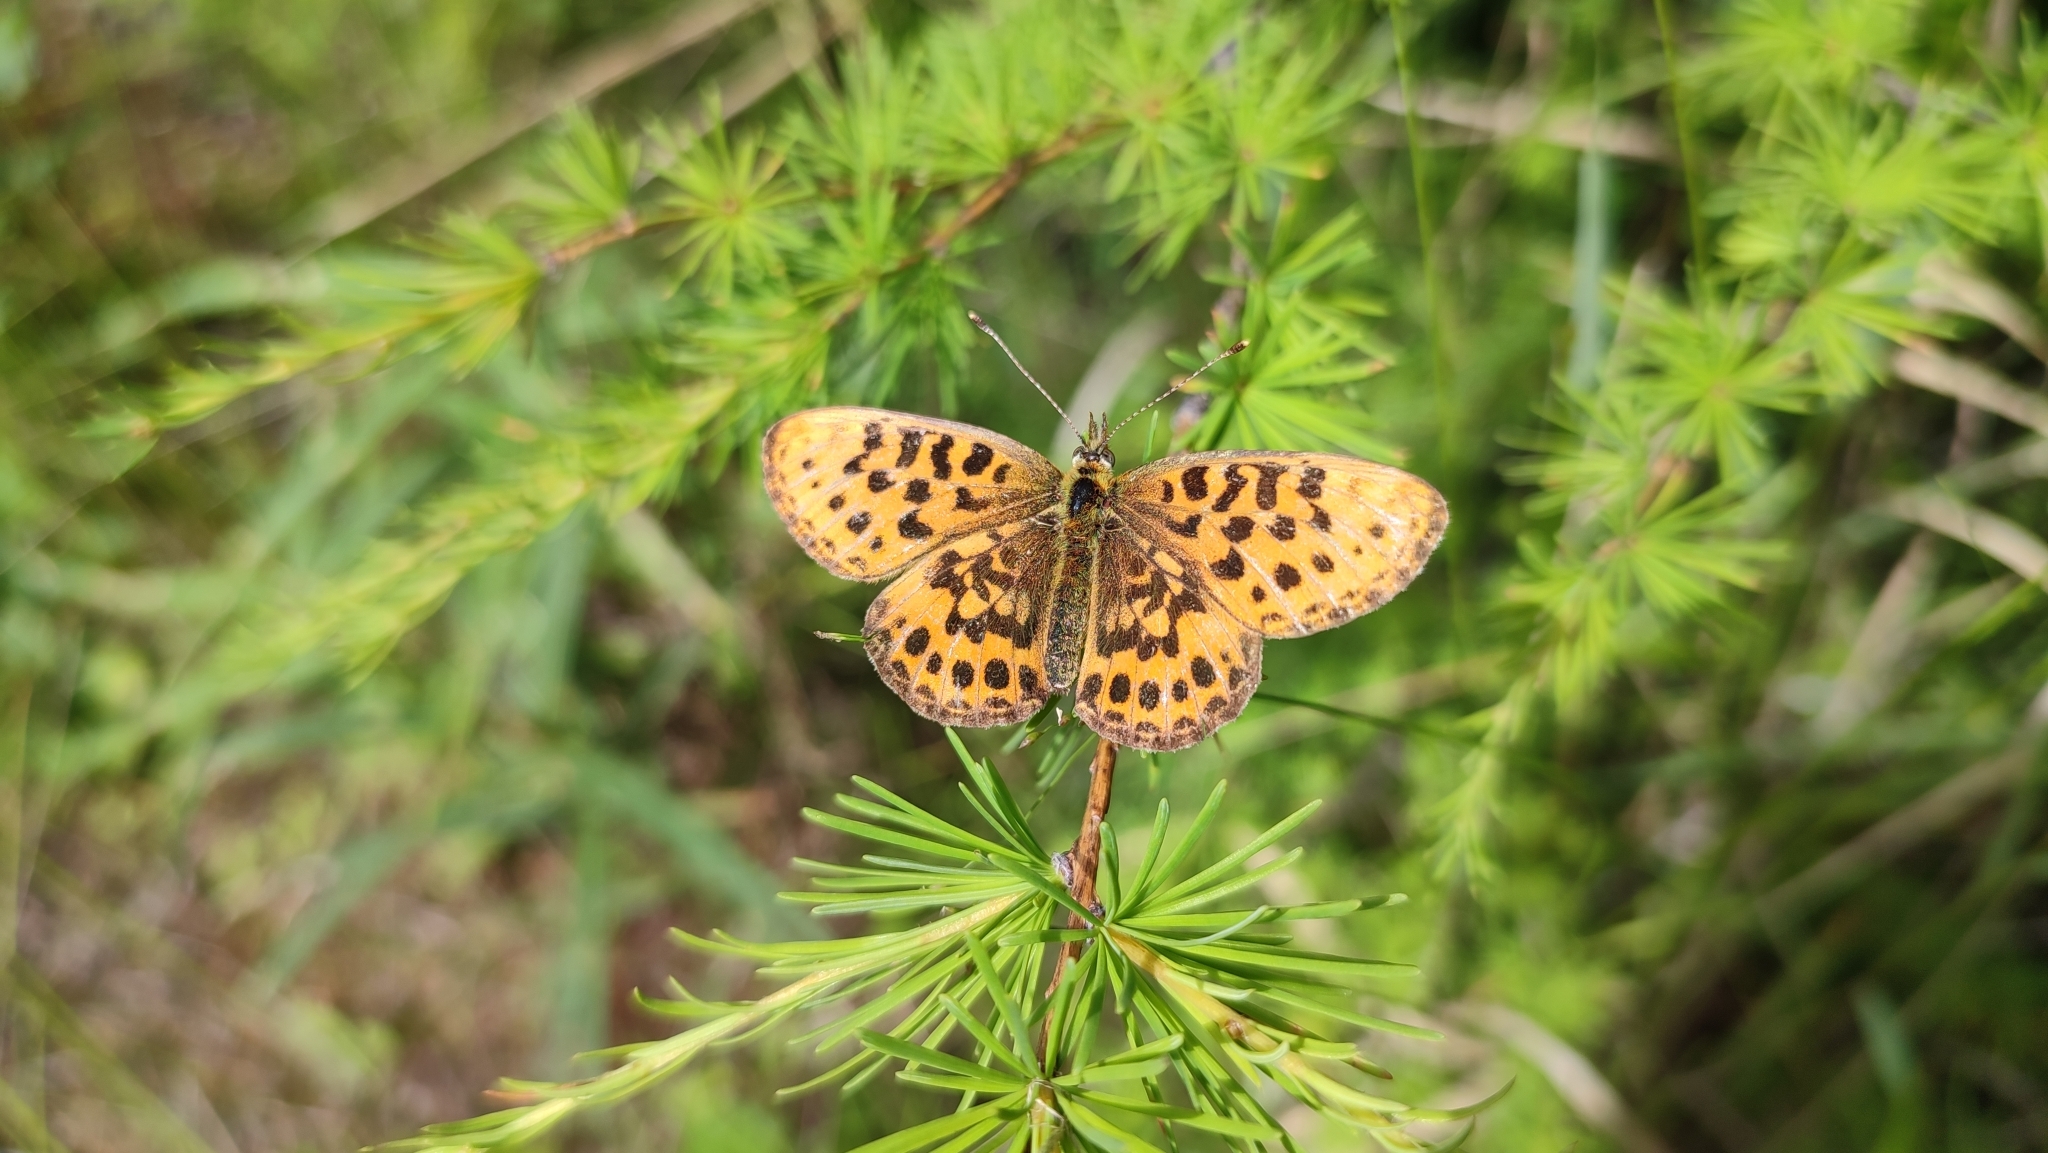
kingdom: Animalia
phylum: Arthropoda
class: Insecta
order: Lepidoptera
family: Nymphalidae
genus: Boloria
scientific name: Boloria thore
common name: Thor's fritillary
